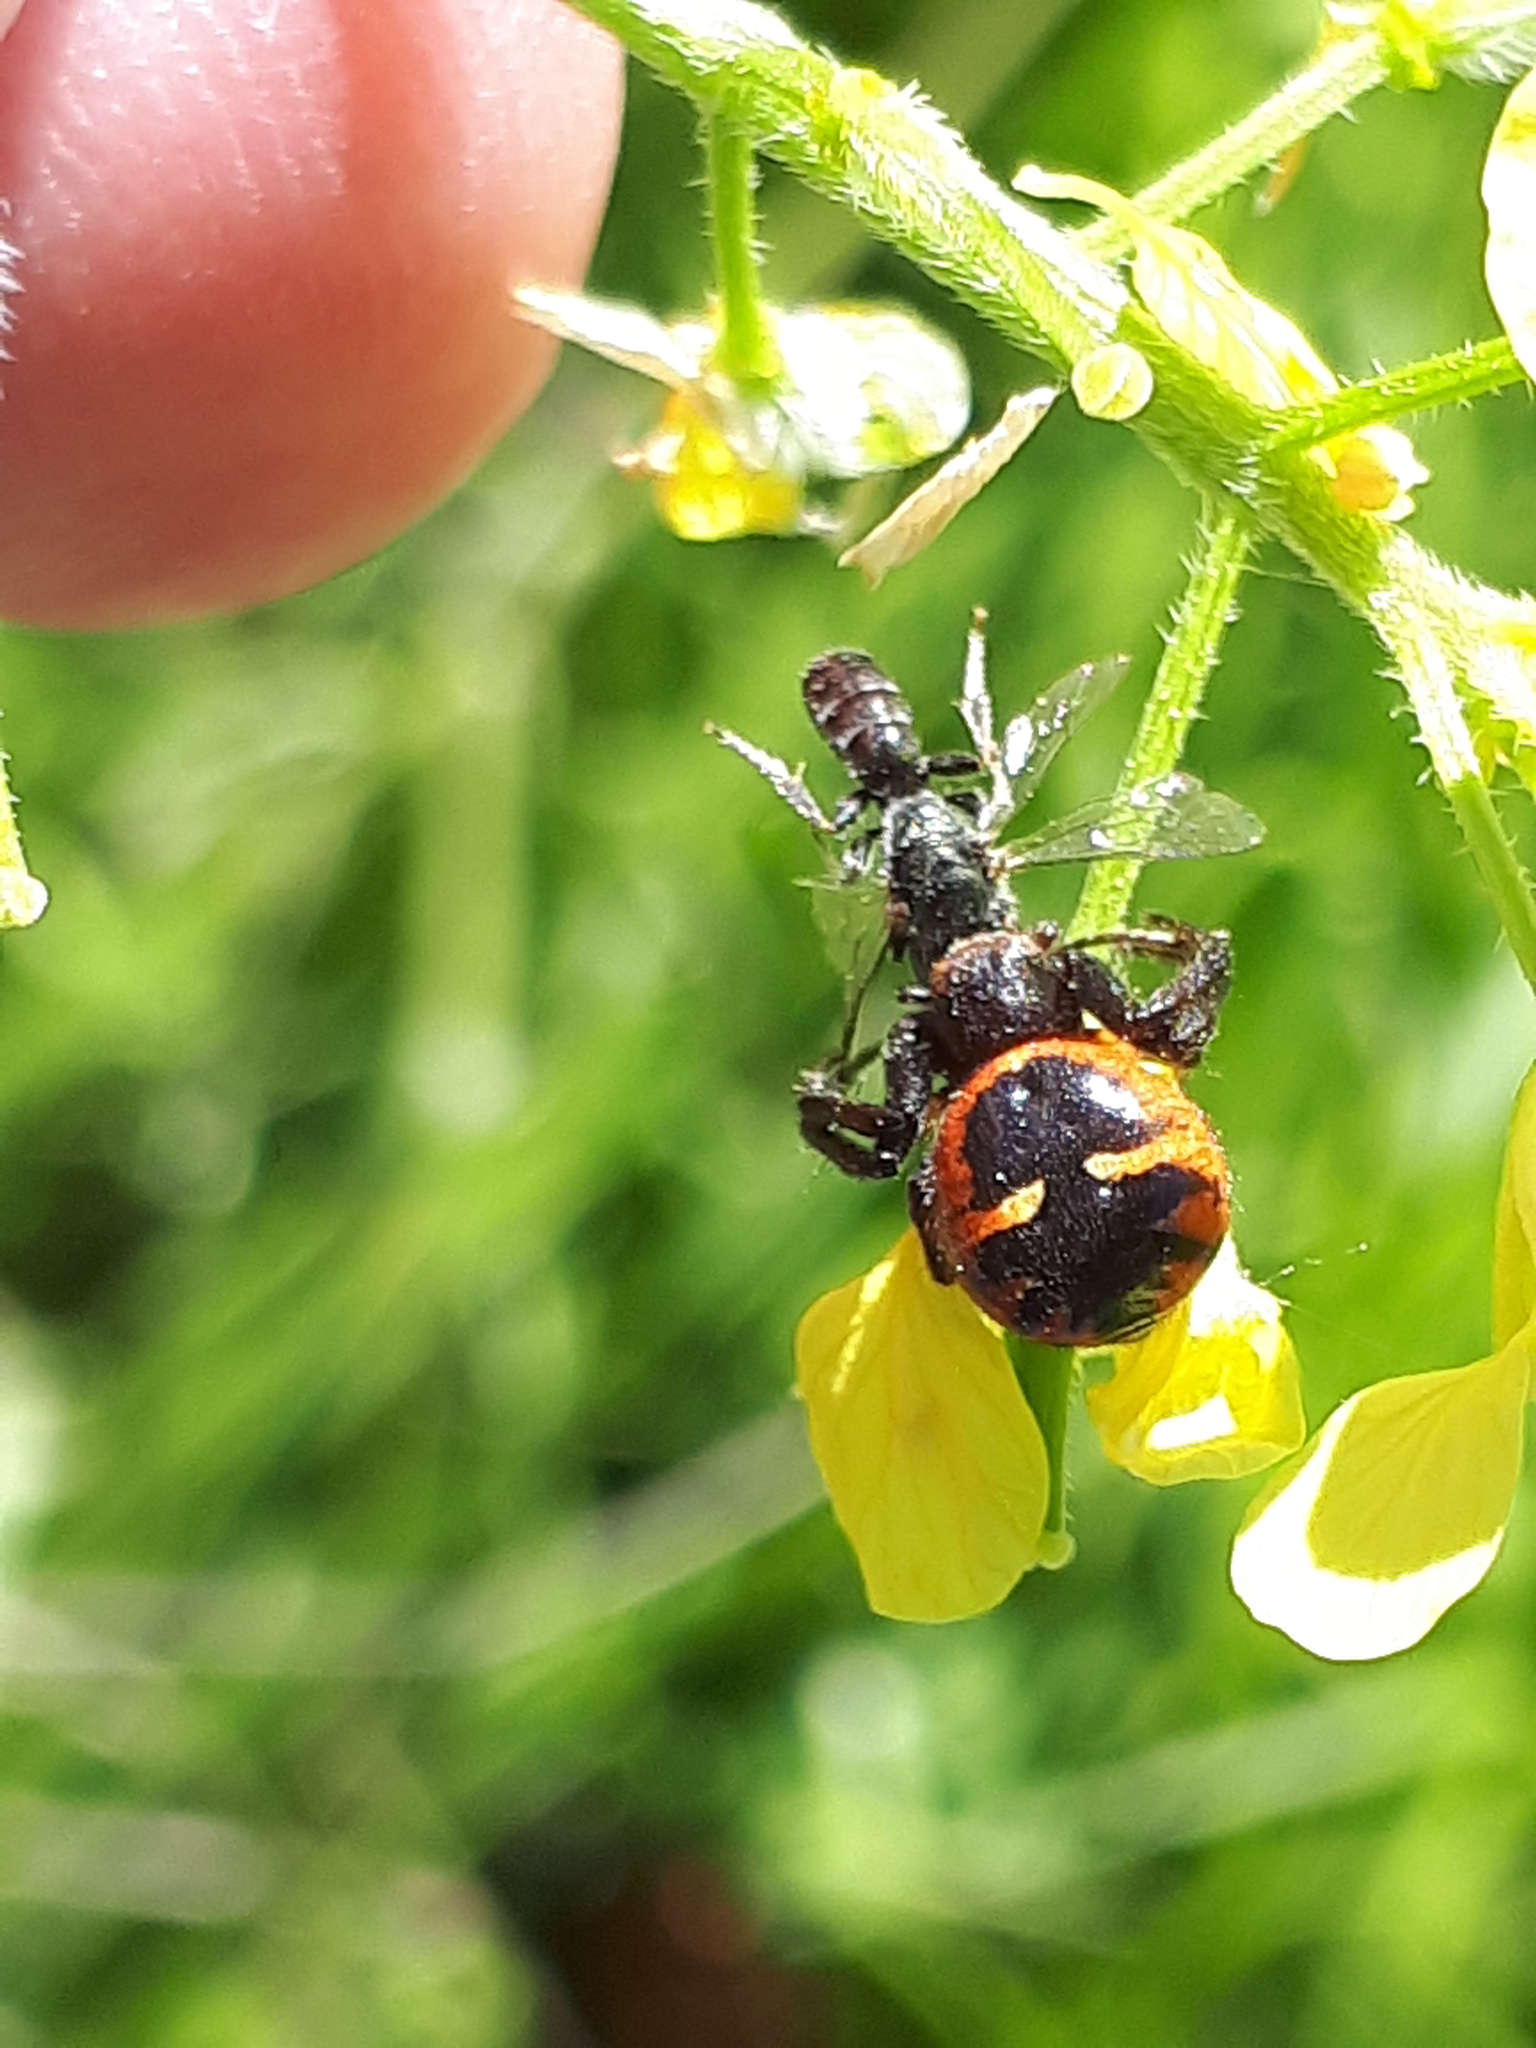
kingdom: Animalia
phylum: Arthropoda
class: Arachnida
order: Araneae
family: Thomisidae
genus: Synema
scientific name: Synema globosum
